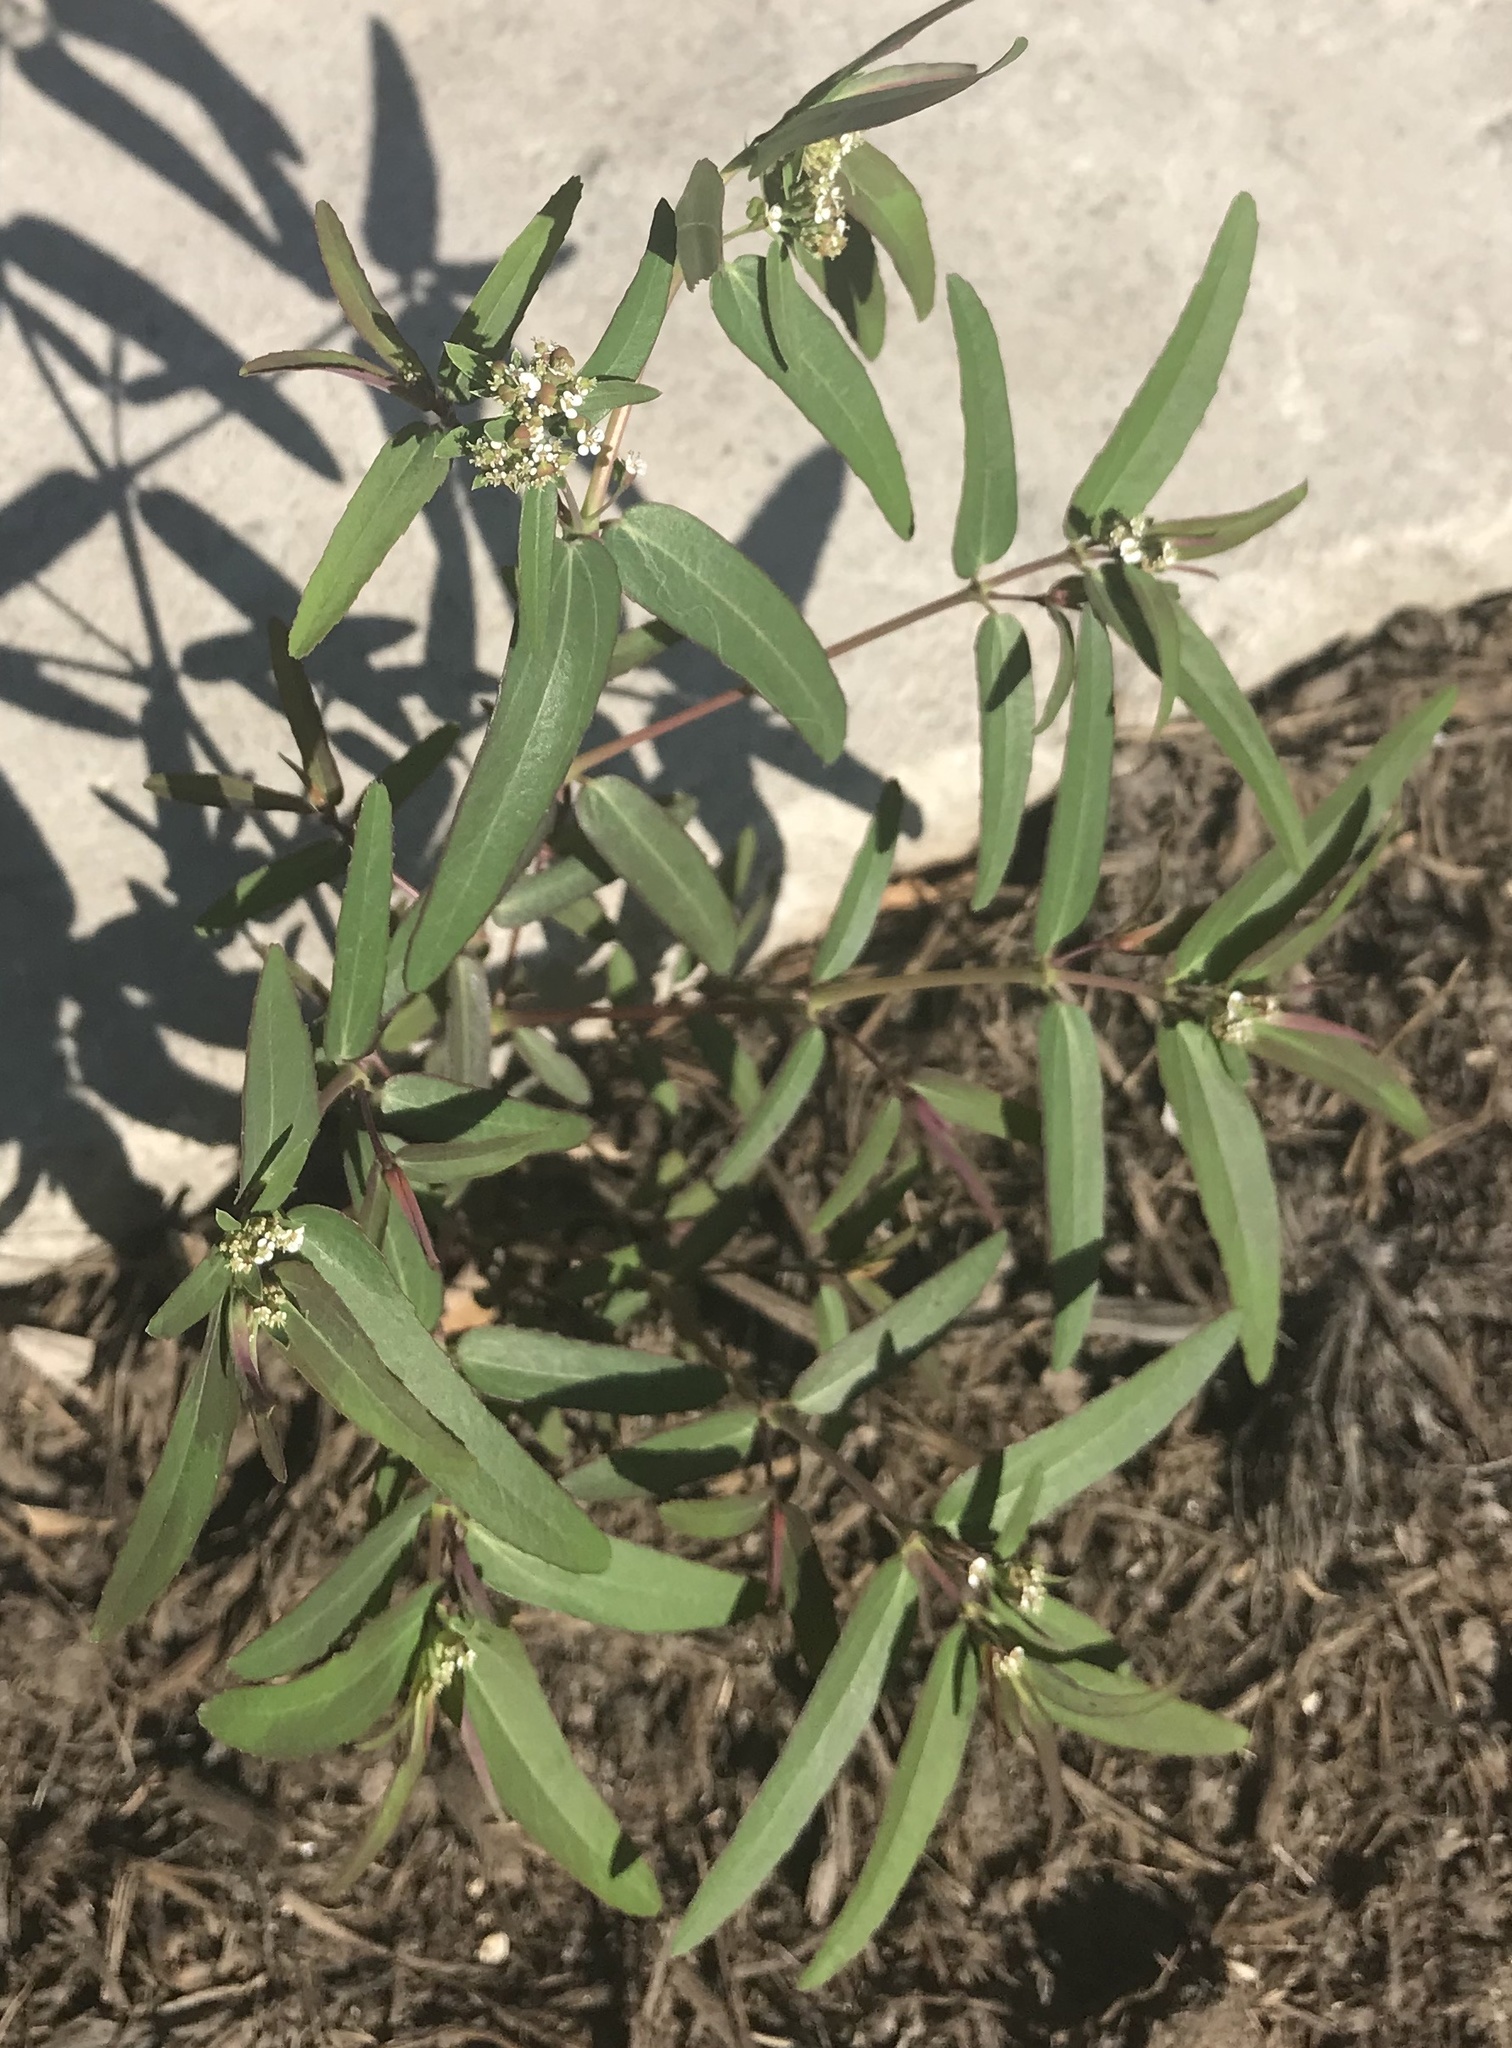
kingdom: Plantae
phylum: Tracheophyta
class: Magnoliopsida
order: Malpighiales
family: Euphorbiaceae
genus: Euphorbia
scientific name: Euphorbia hypericifolia
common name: Graceful sandmat
